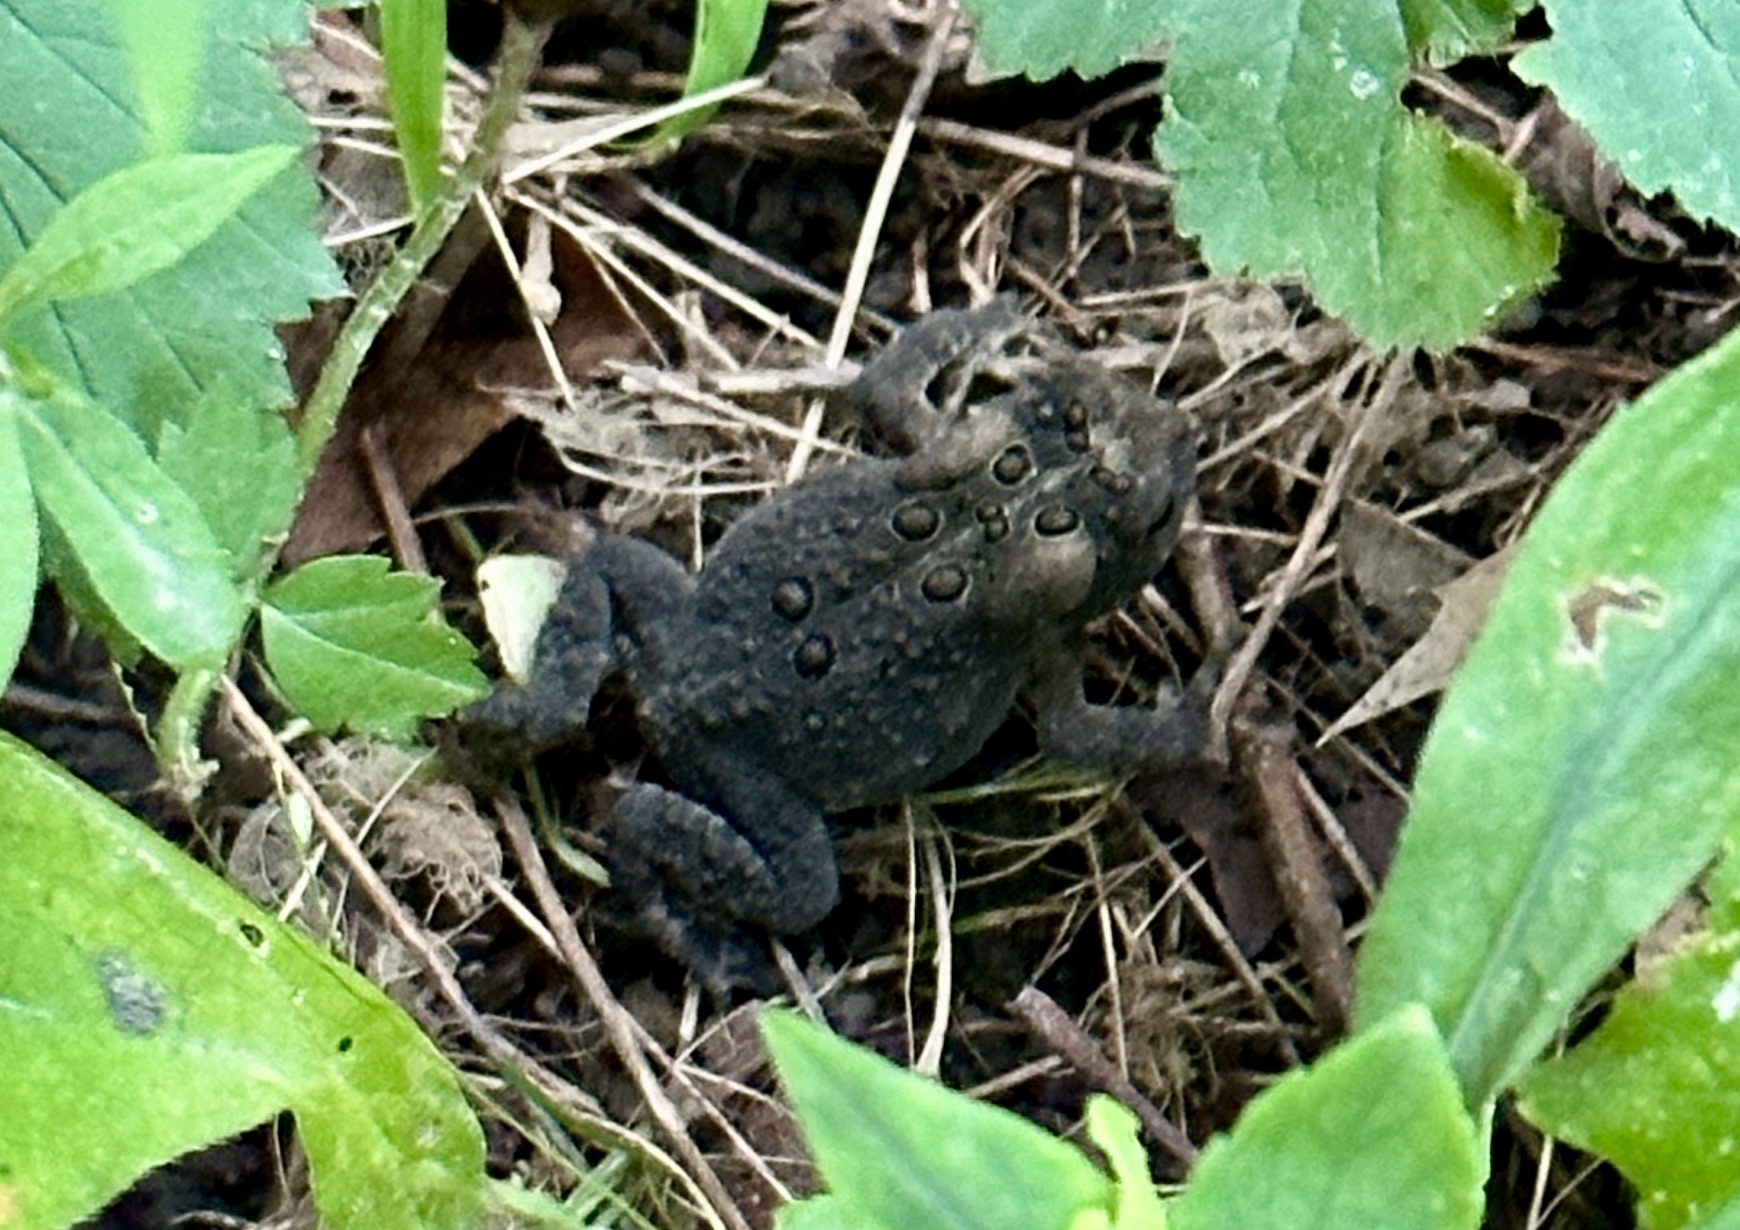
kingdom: Animalia
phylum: Chordata
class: Amphibia
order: Anura
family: Bufonidae
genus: Anaxyrus
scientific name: Anaxyrus americanus
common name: American toad
